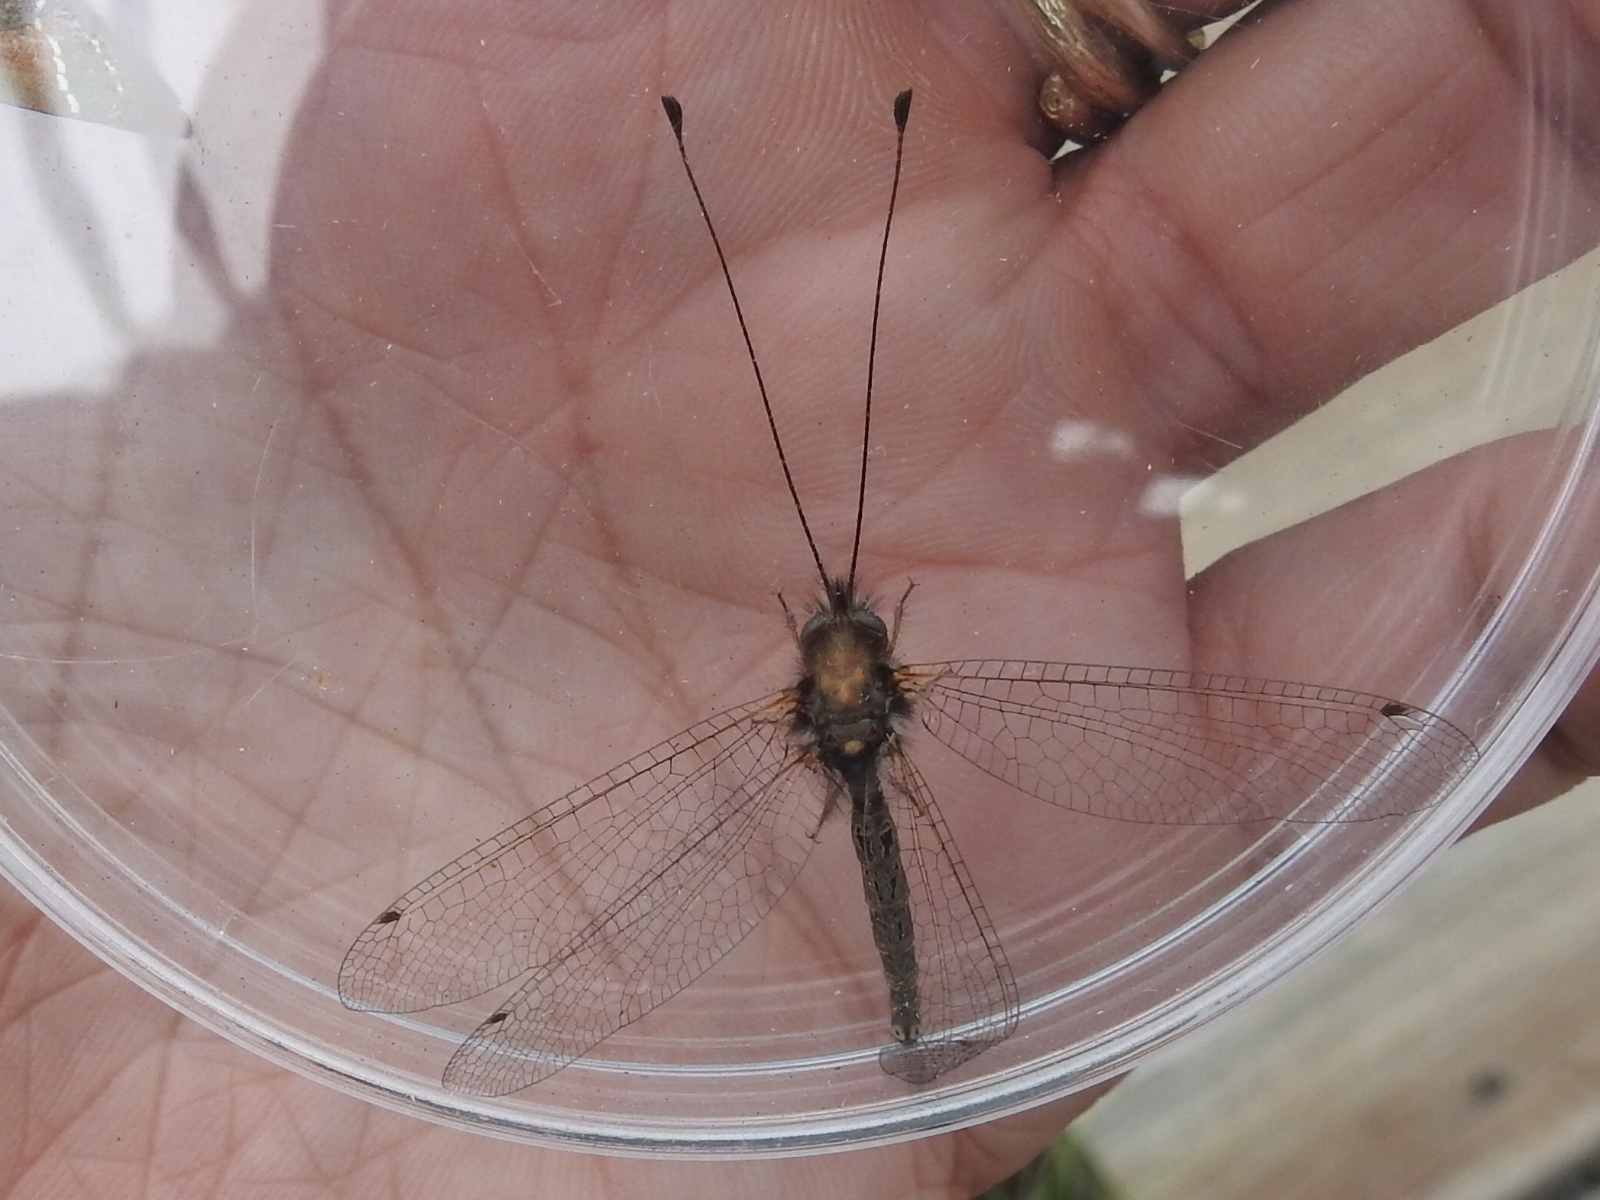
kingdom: Animalia
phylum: Arthropoda
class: Insecta
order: Neuroptera
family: Ascalaphidae
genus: Ululodes
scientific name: Ululodes macleayanus
